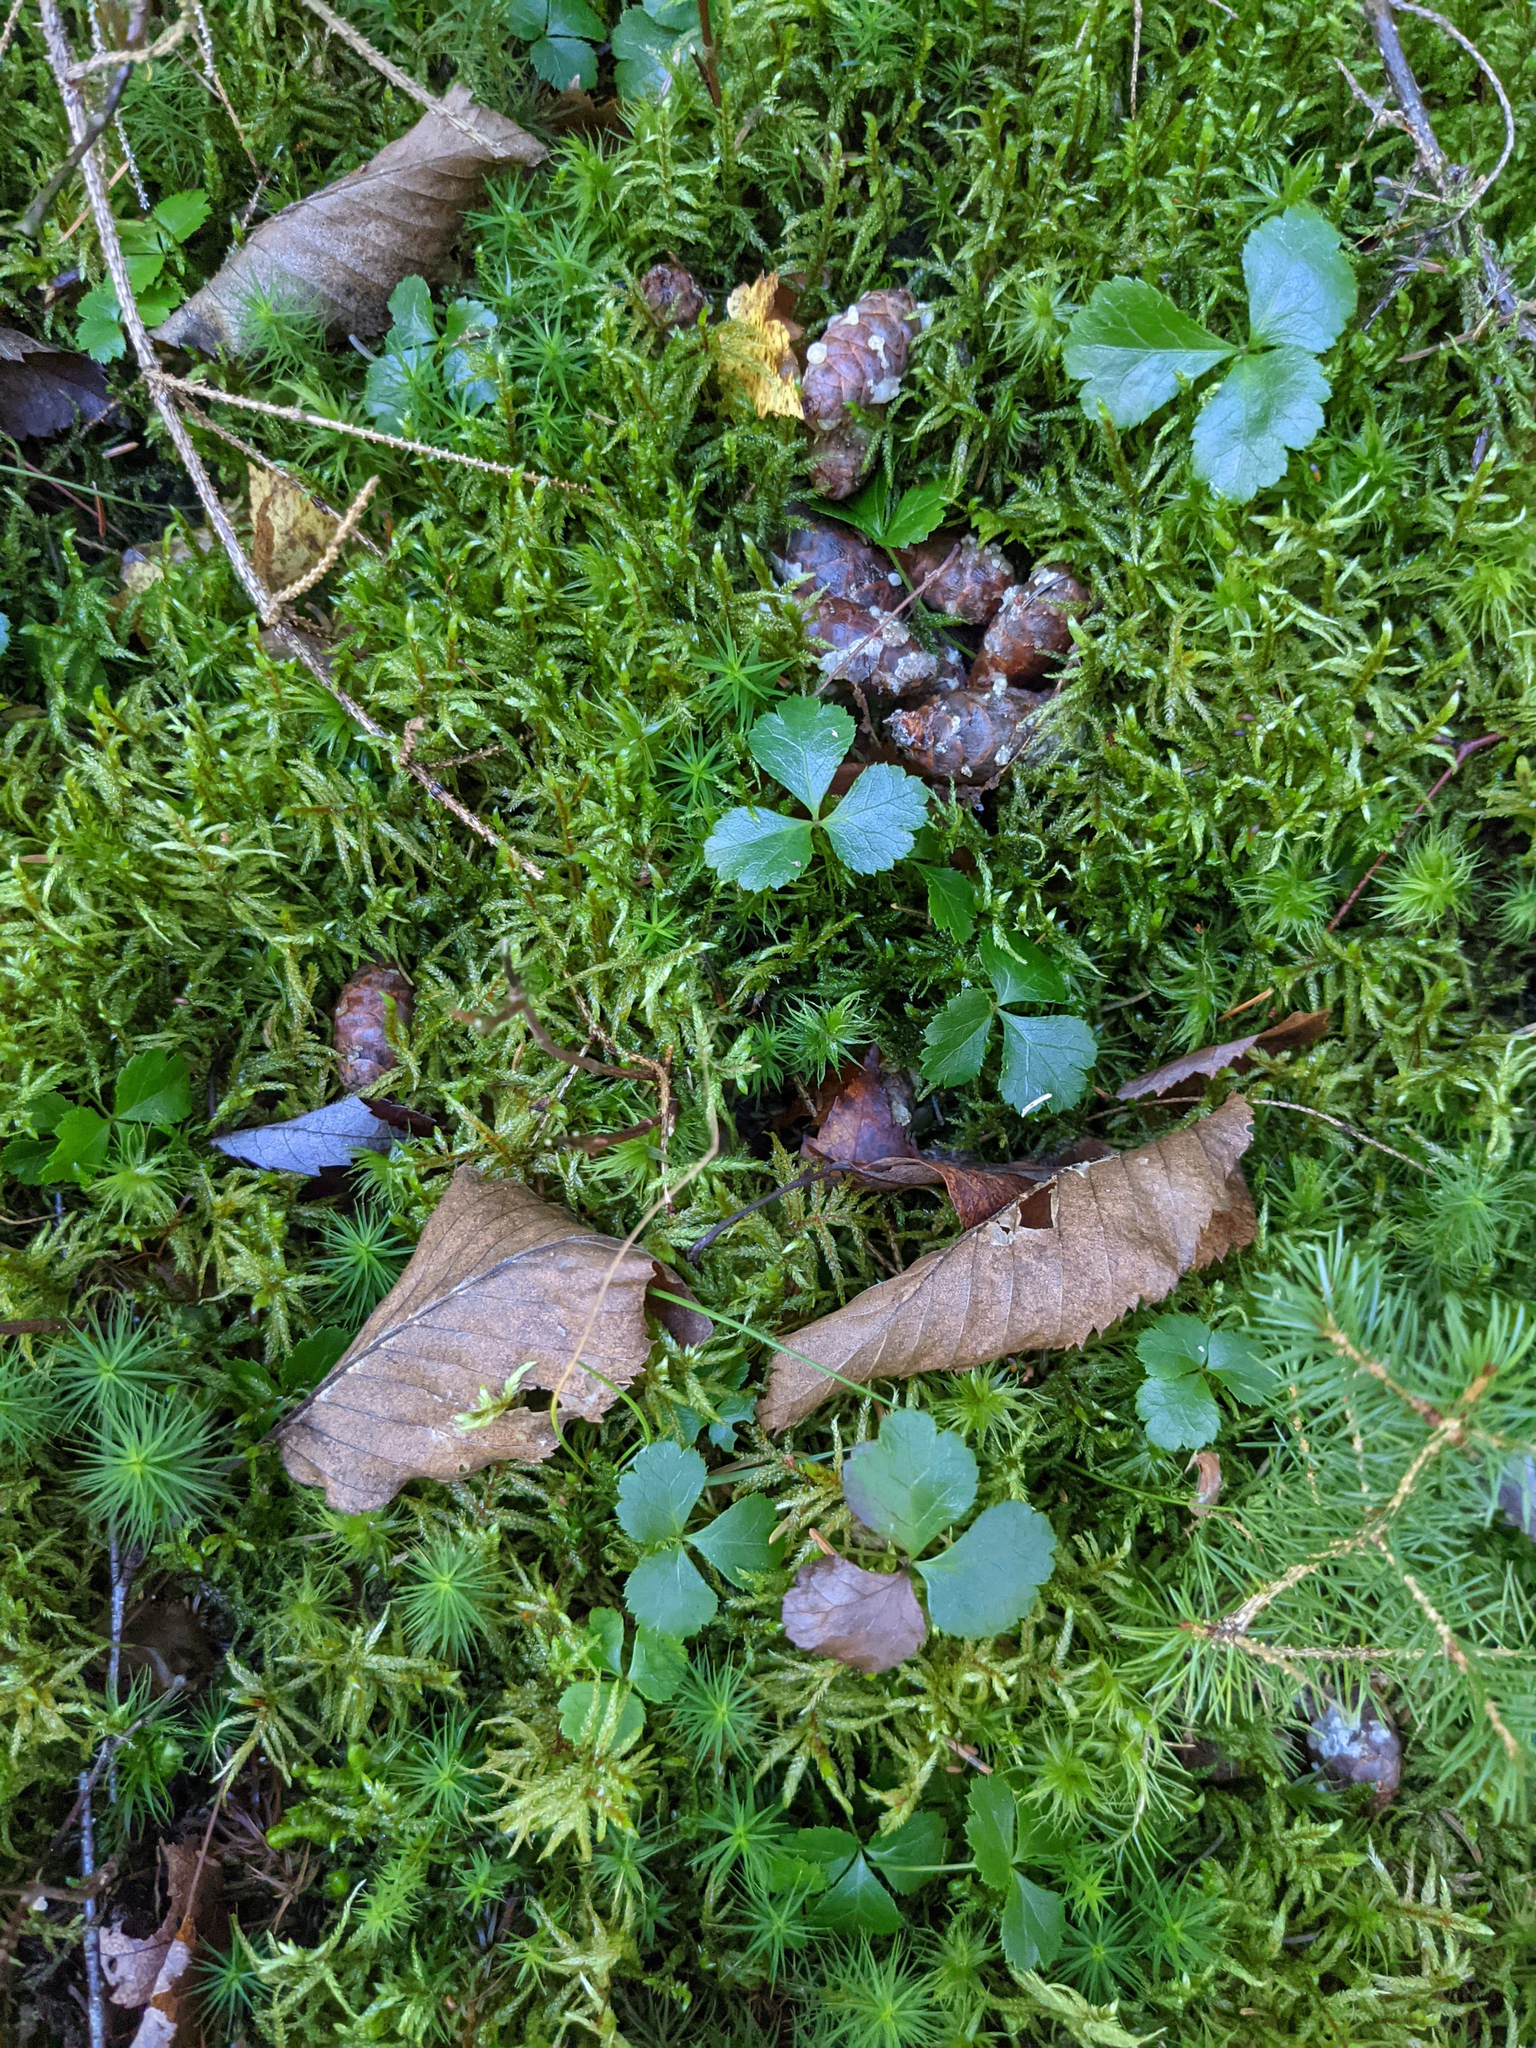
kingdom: Plantae
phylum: Tracheophyta
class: Magnoliopsida
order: Ranunculales
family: Ranunculaceae
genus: Coptis
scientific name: Coptis trifolia
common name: Canker-root
